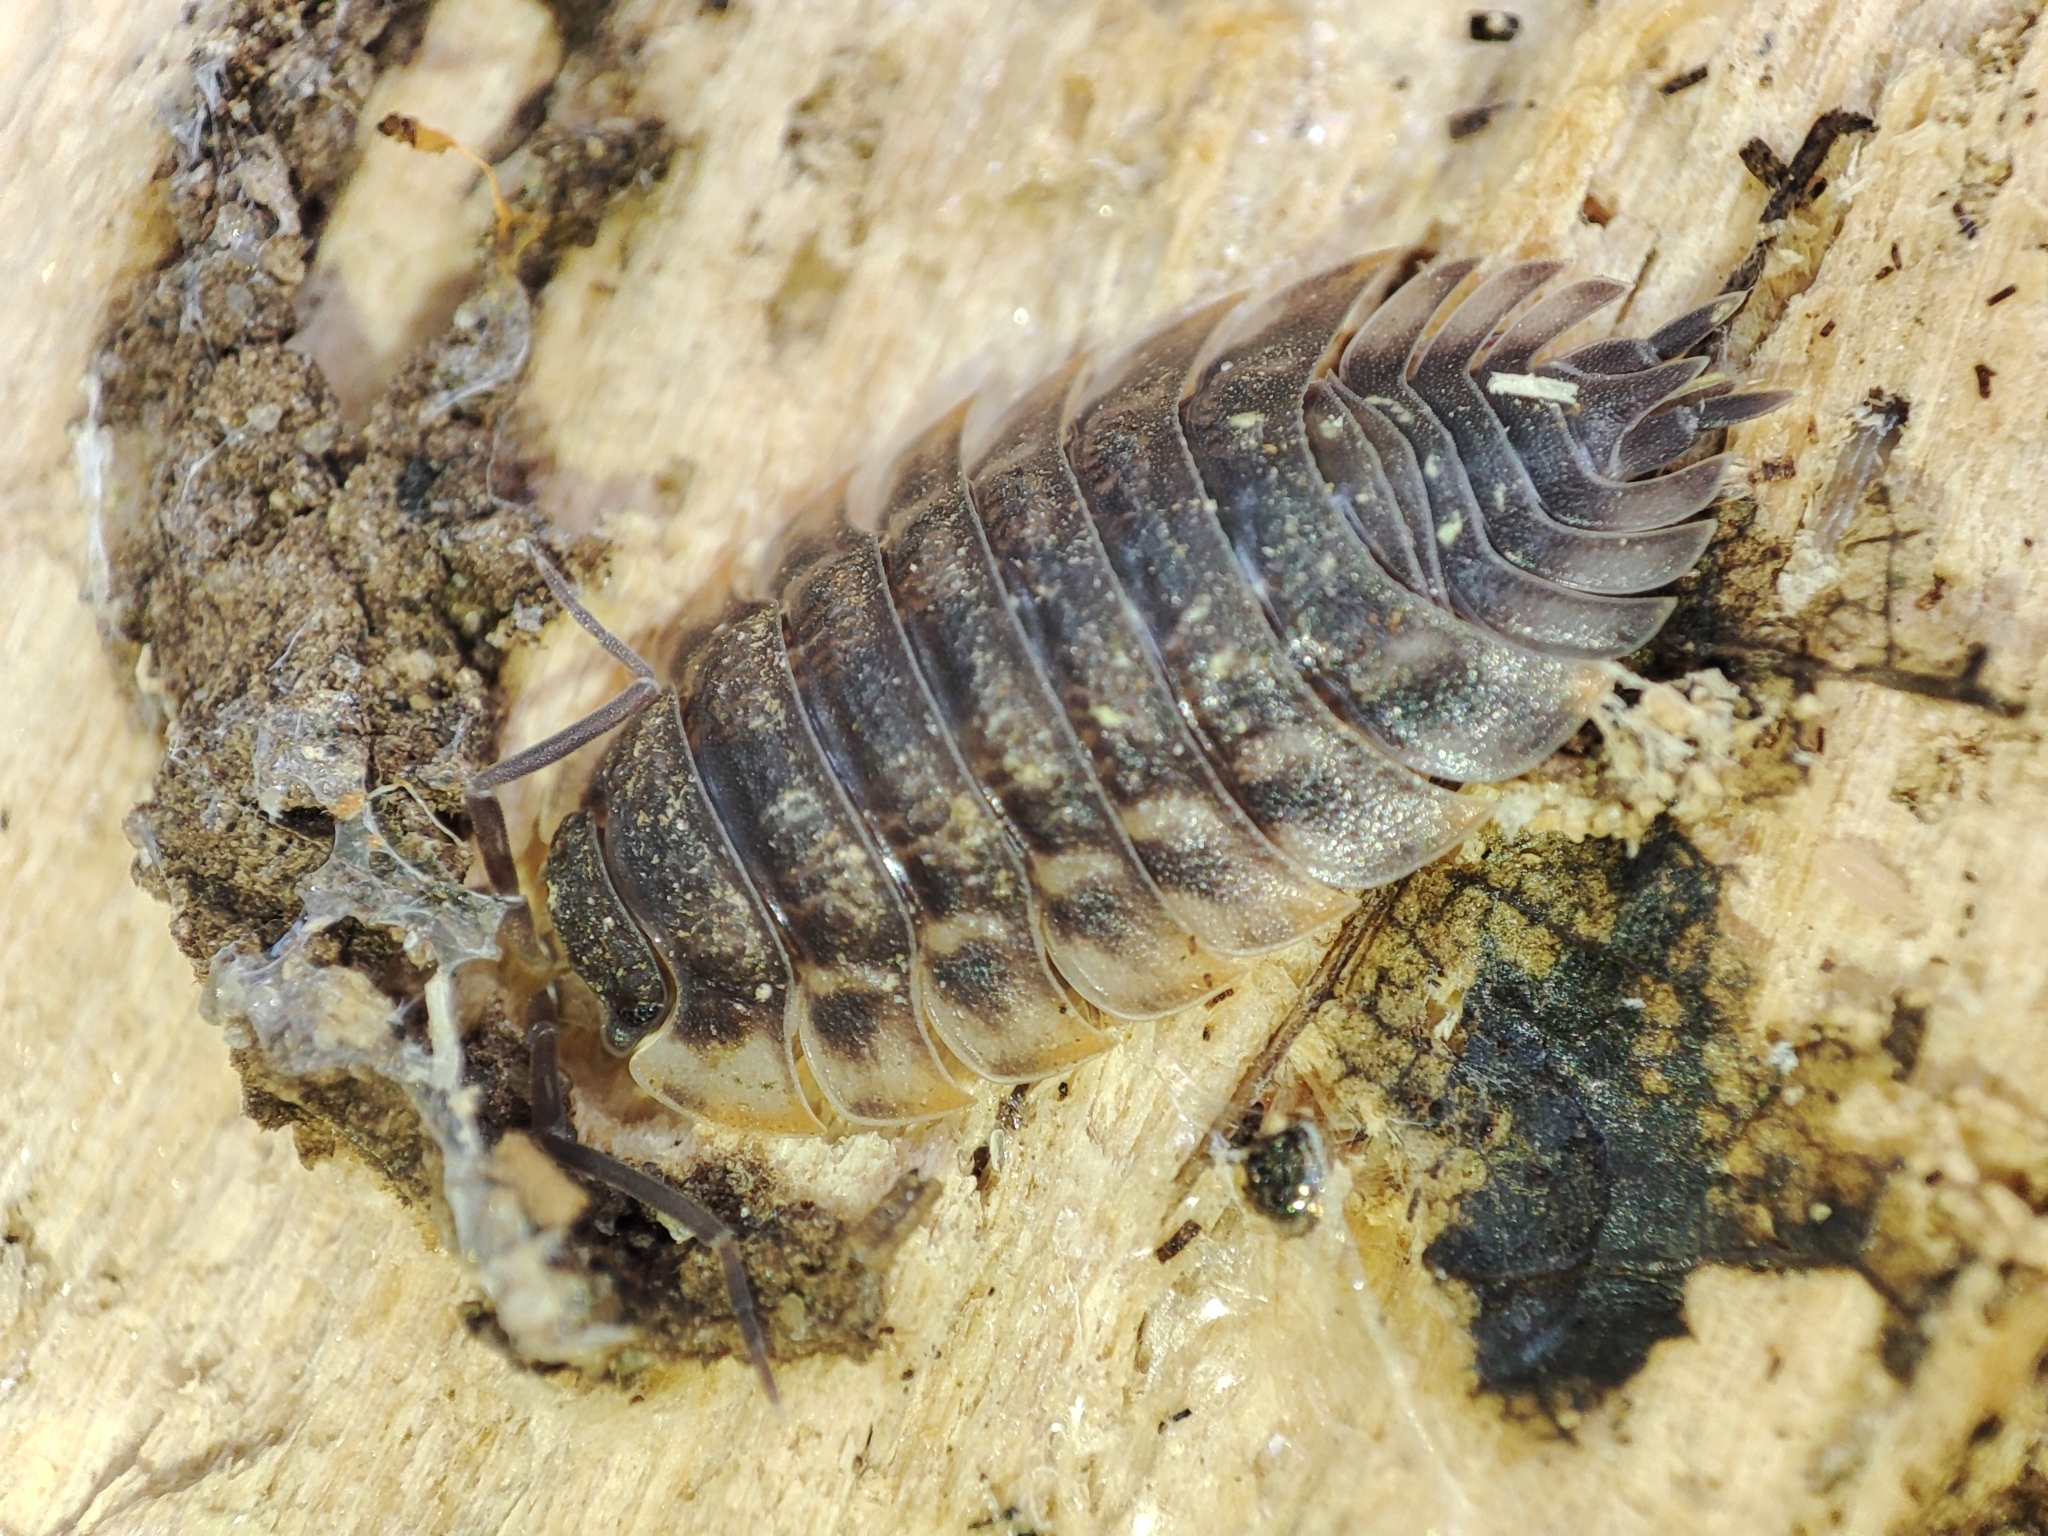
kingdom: Animalia
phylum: Arthropoda
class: Malacostraca
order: Isopoda
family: Oniscidae
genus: Oniscus
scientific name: Oniscus asellus
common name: Common shiny woodlouse
